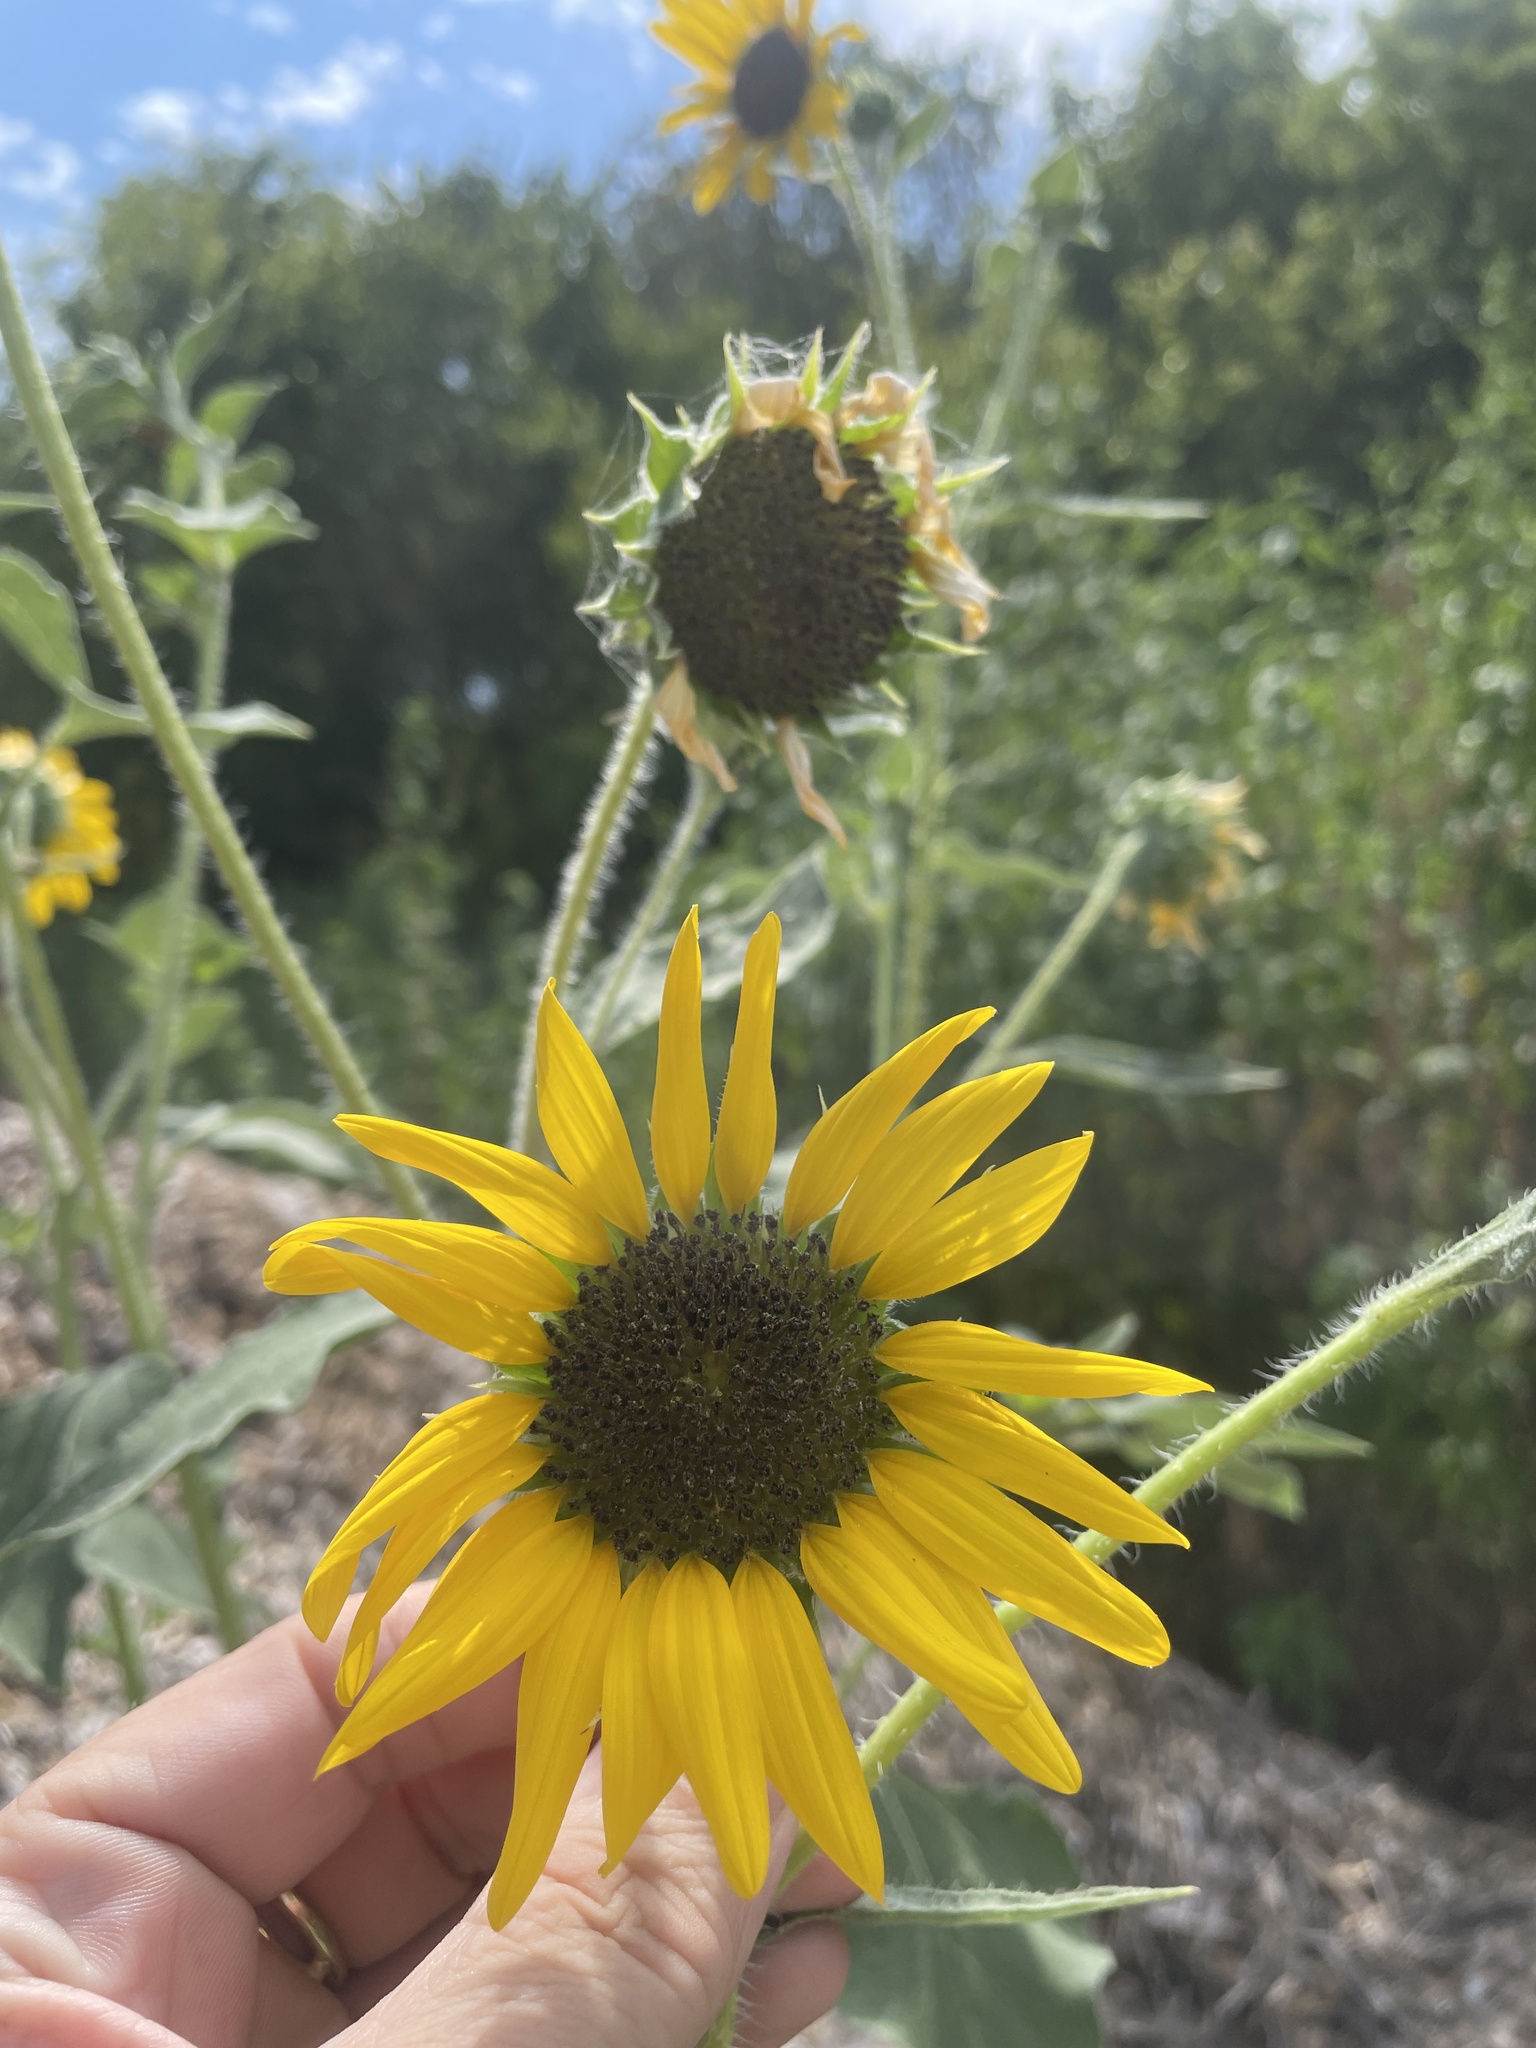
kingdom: Plantae
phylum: Tracheophyta
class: Magnoliopsida
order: Asterales
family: Asteraceae
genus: Helianthus
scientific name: Helianthus annuus
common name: Sunflower
